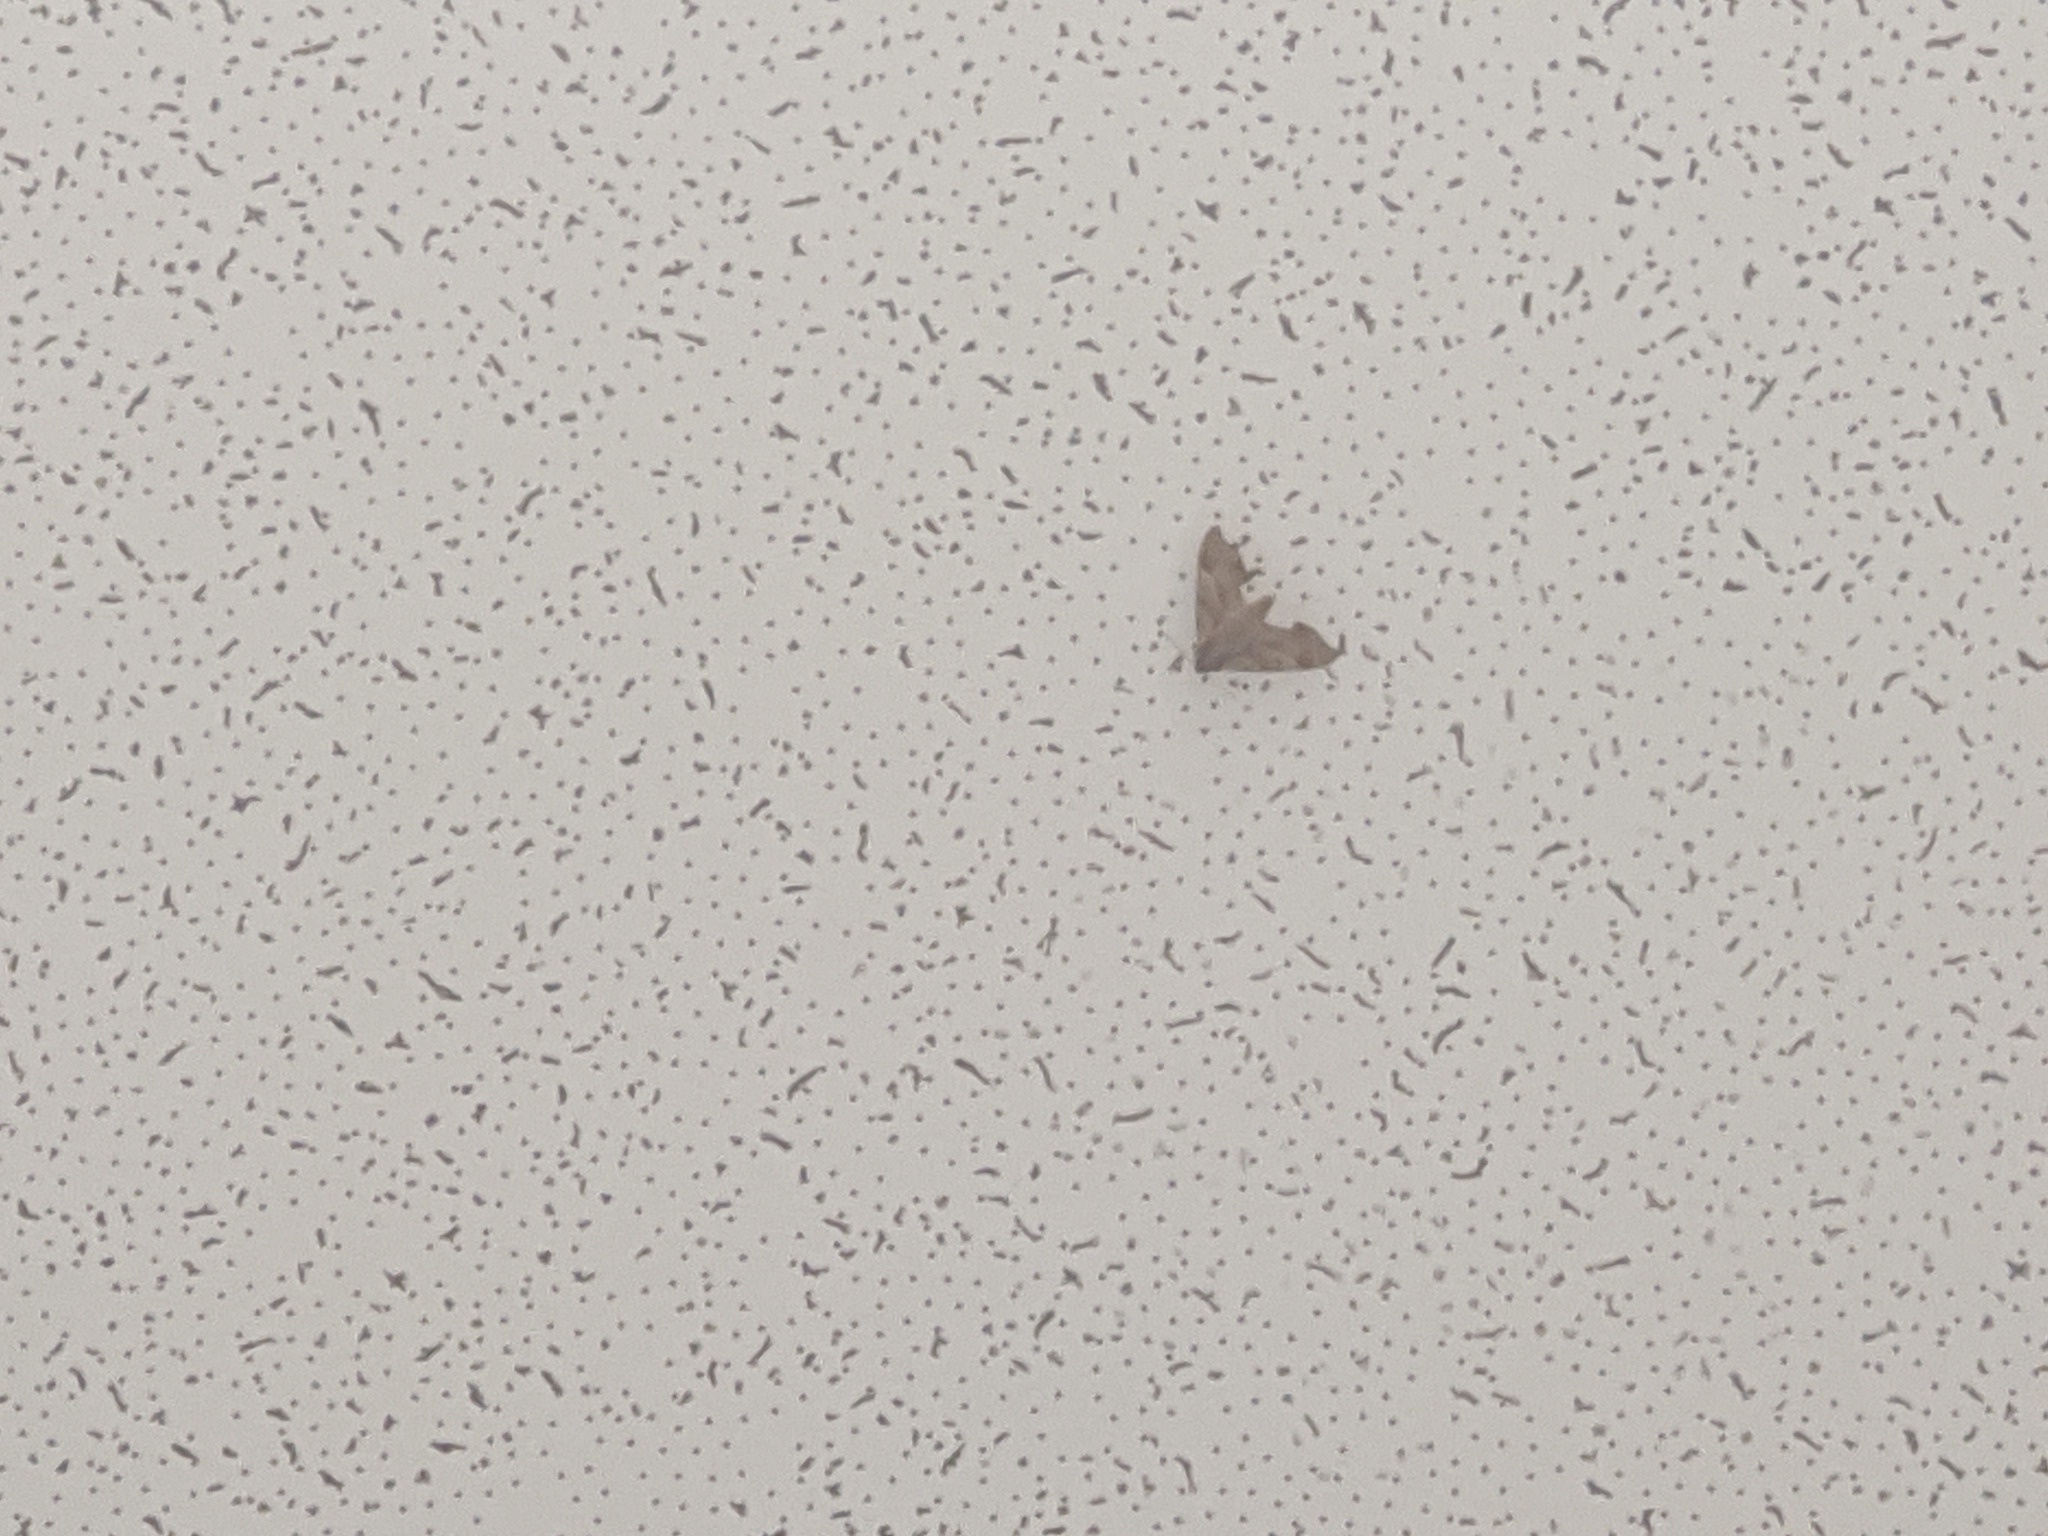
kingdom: Animalia
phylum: Arthropoda
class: Insecta
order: Lepidoptera
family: Sphingidae
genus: Darapsa
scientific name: Darapsa myron
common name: Hog sphinx
